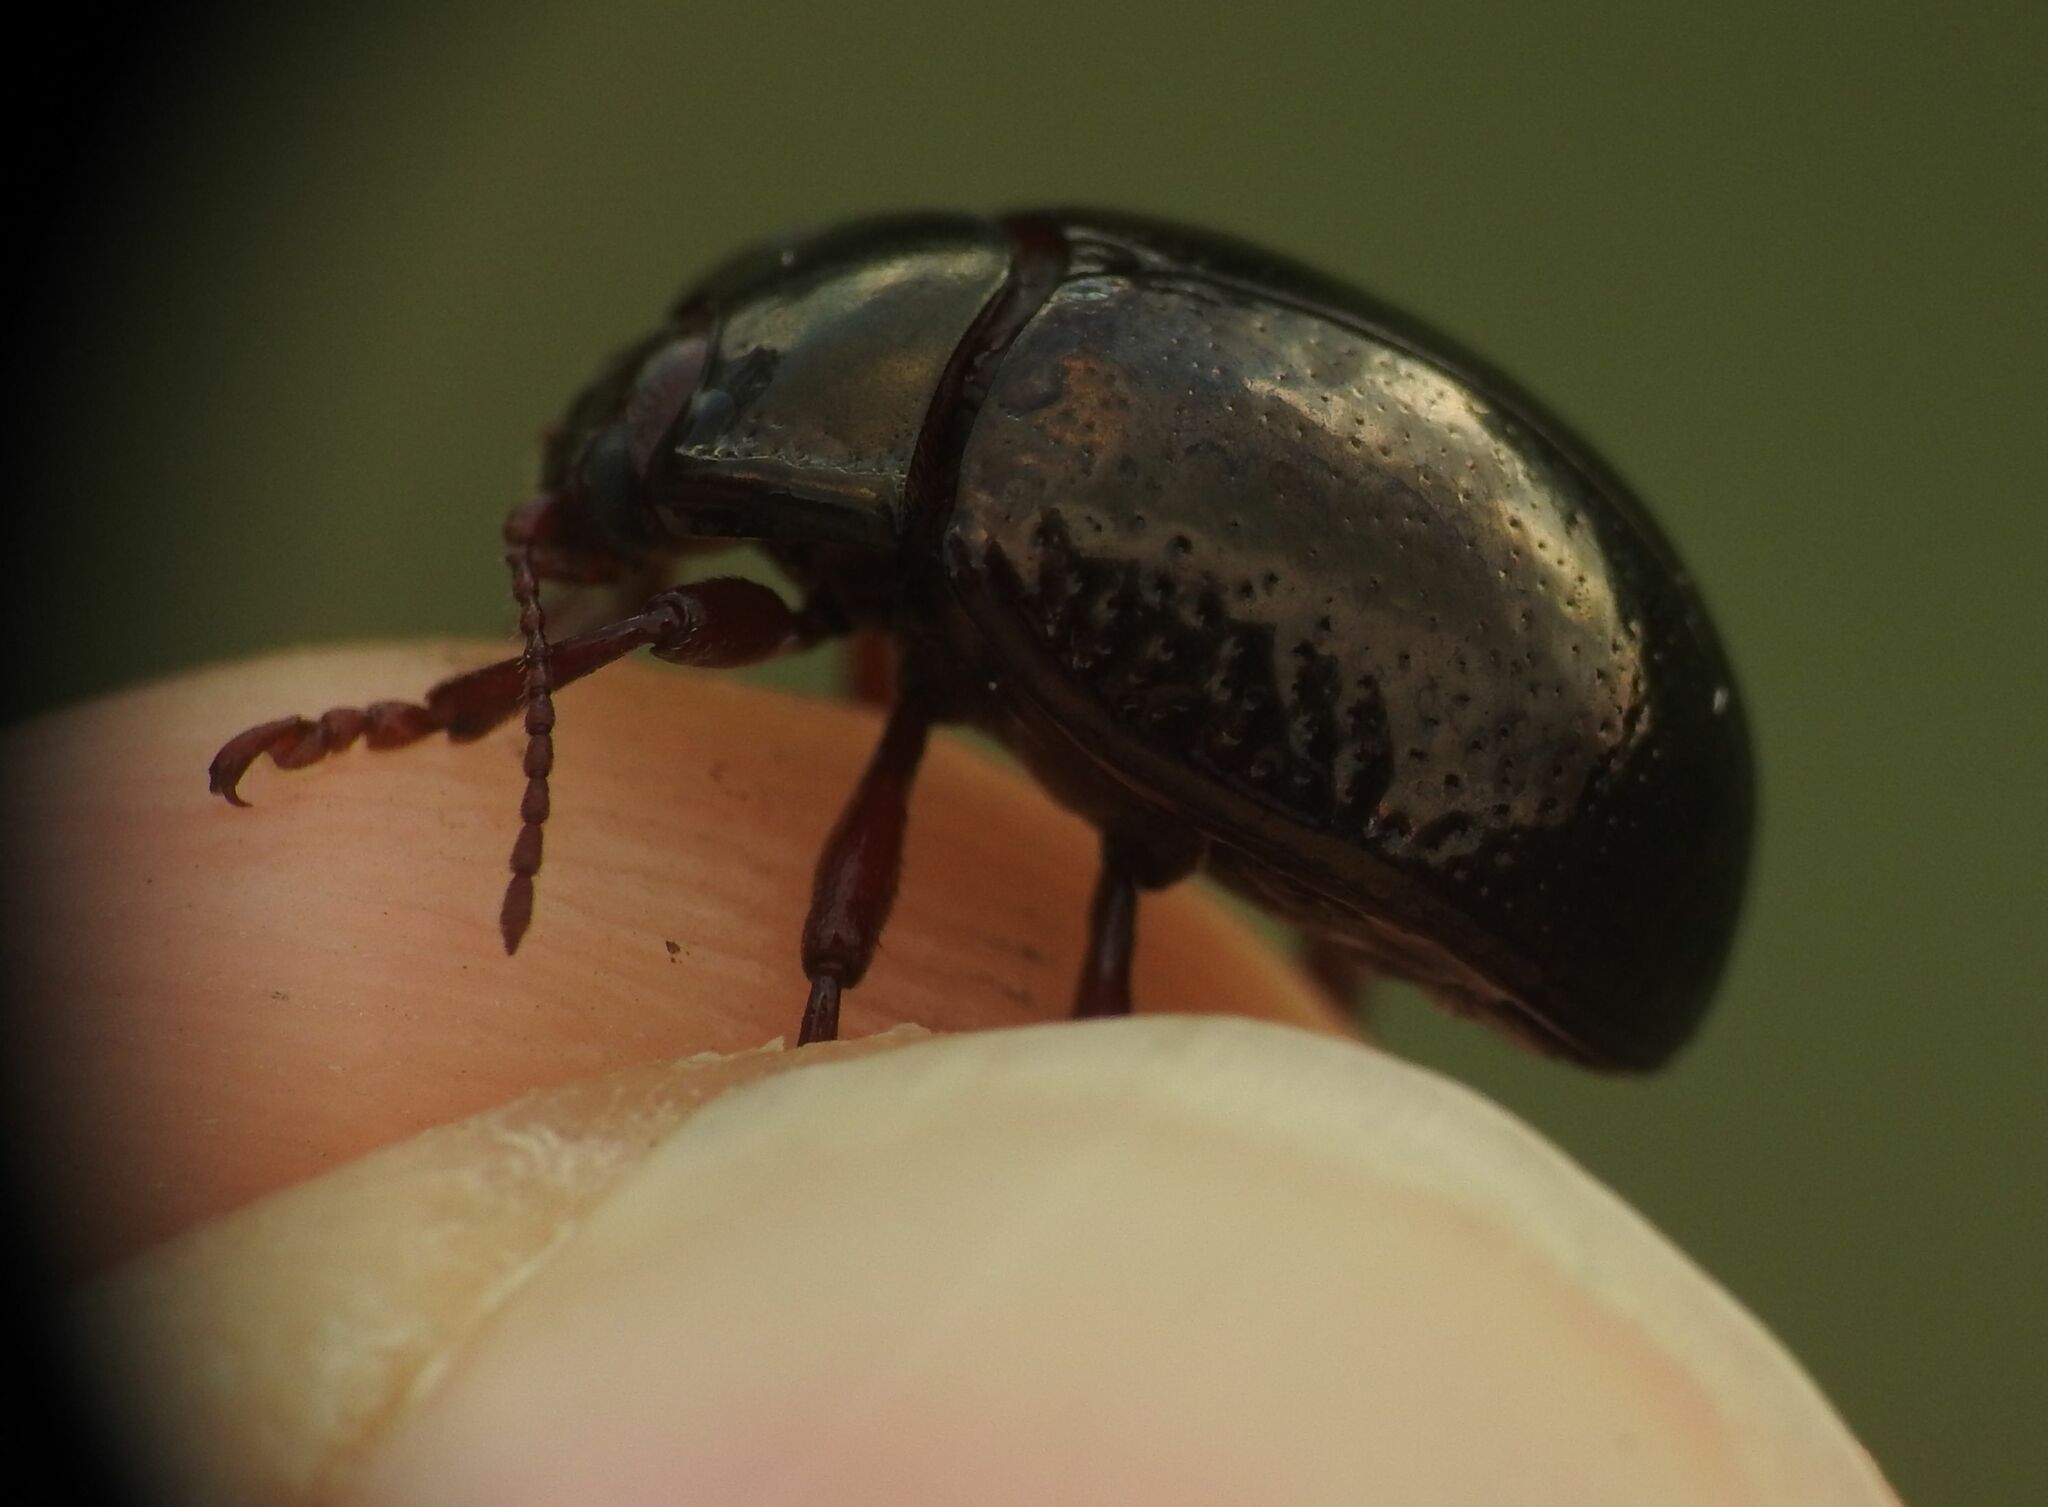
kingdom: Animalia
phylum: Arthropoda
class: Insecta
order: Coleoptera
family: Chrysomelidae
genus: Chrysolina
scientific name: Chrysolina bankii
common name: Leaf beetle
